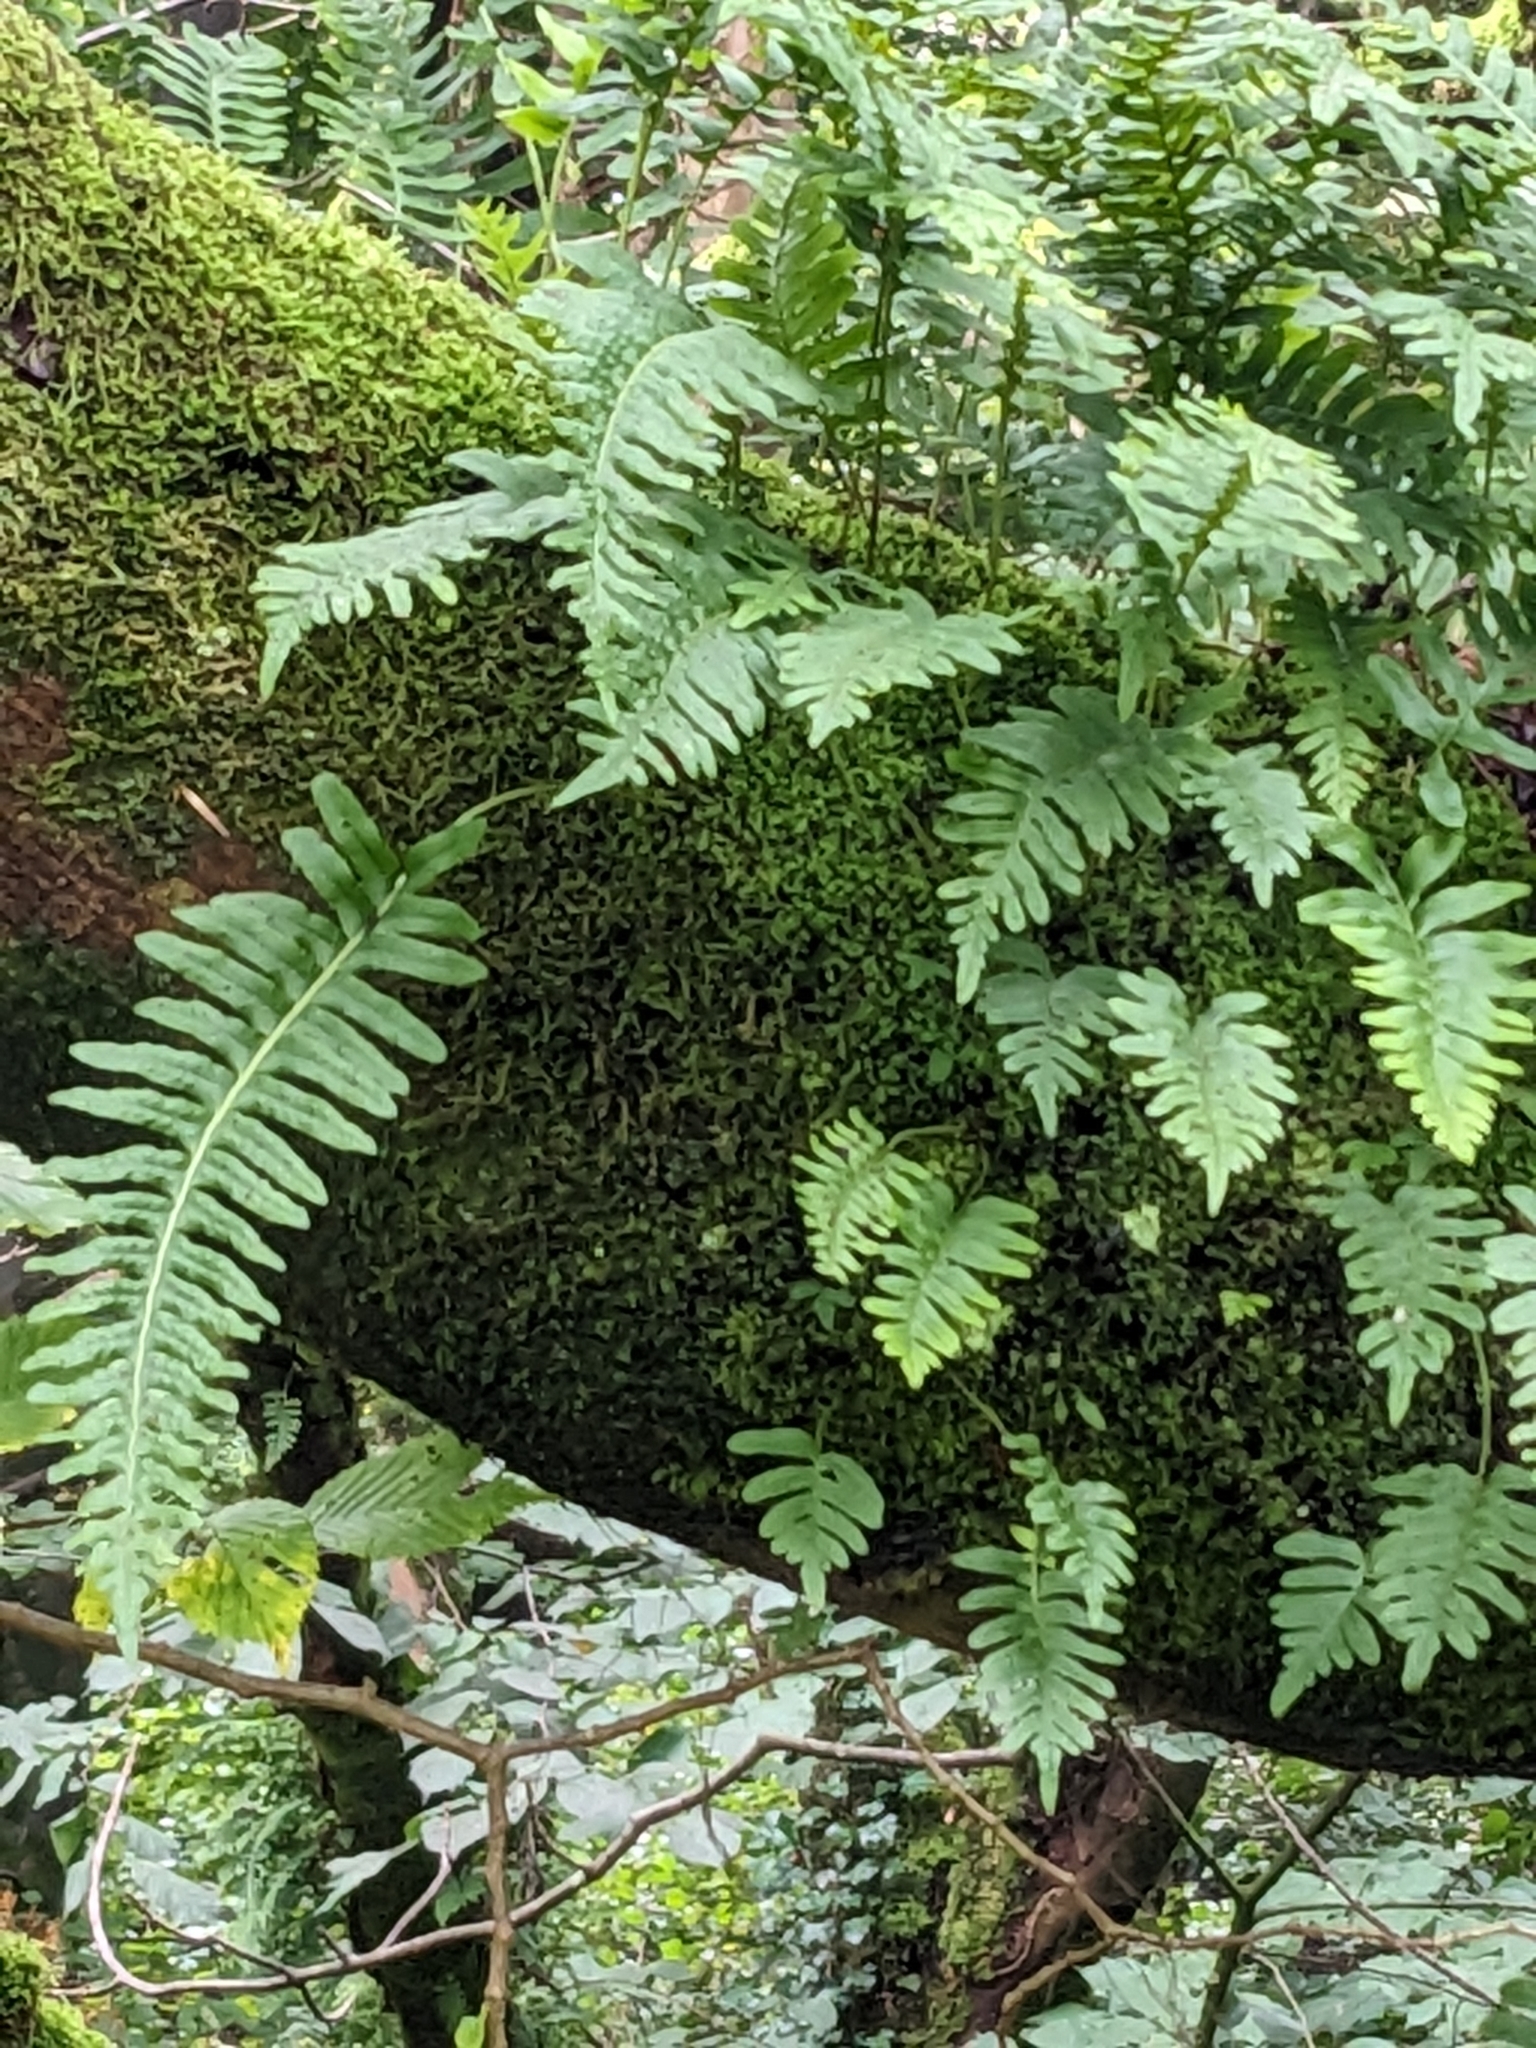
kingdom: Plantae
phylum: Tracheophyta
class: Polypodiopsida
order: Polypodiales
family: Polypodiaceae
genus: Polypodium
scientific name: Polypodium vulgare
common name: Common polypody
